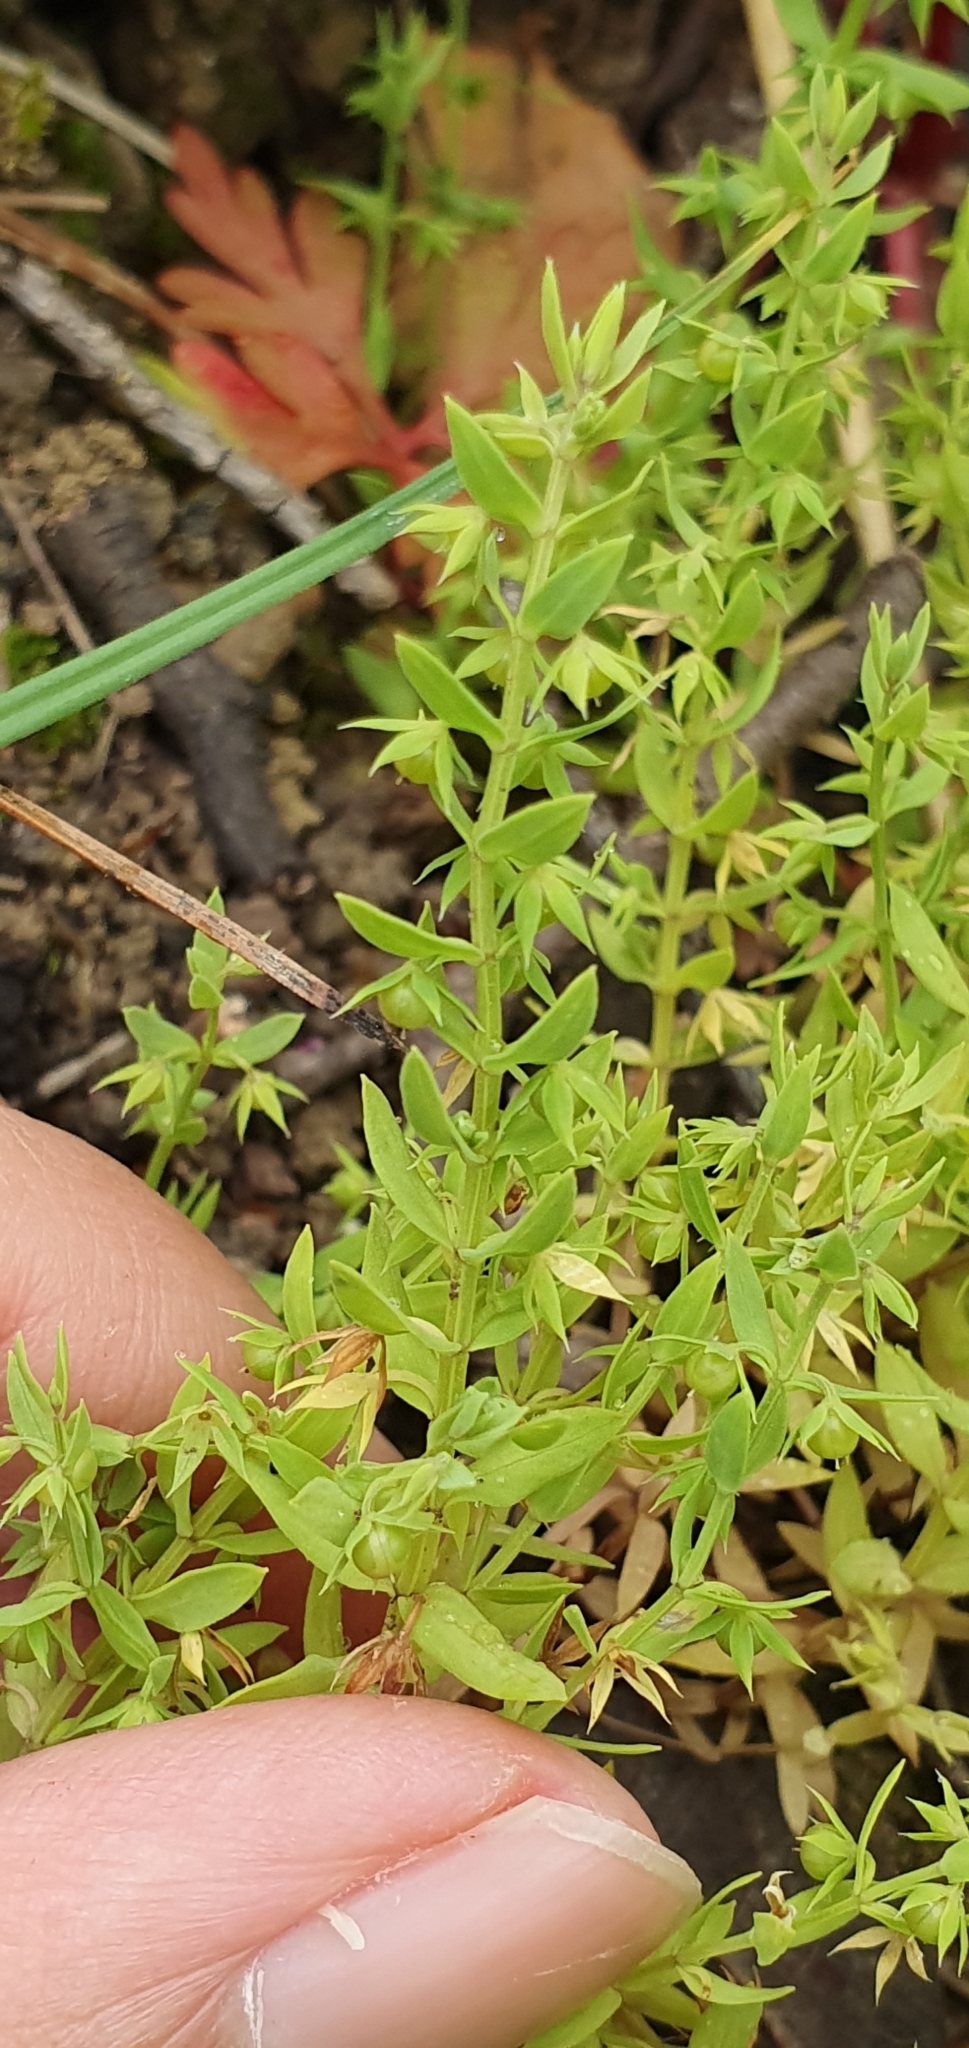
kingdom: Plantae
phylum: Tracheophyta
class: Magnoliopsida
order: Ericales
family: Primulaceae
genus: Lysimachia
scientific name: Lysimachia linum-stellatum
